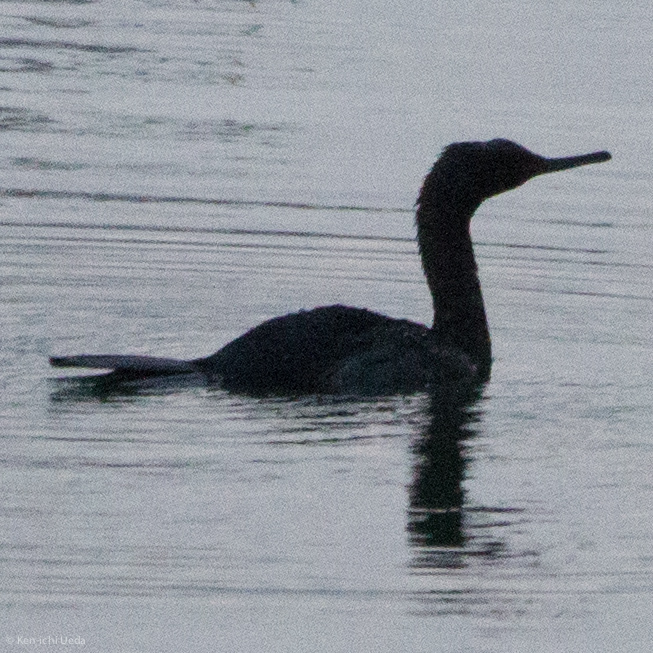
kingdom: Animalia
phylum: Chordata
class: Aves
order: Suliformes
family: Phalacrocoracidae
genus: Phalacrocorax
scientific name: Phalacrocorax pelagicus
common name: Pelagic cormorant
